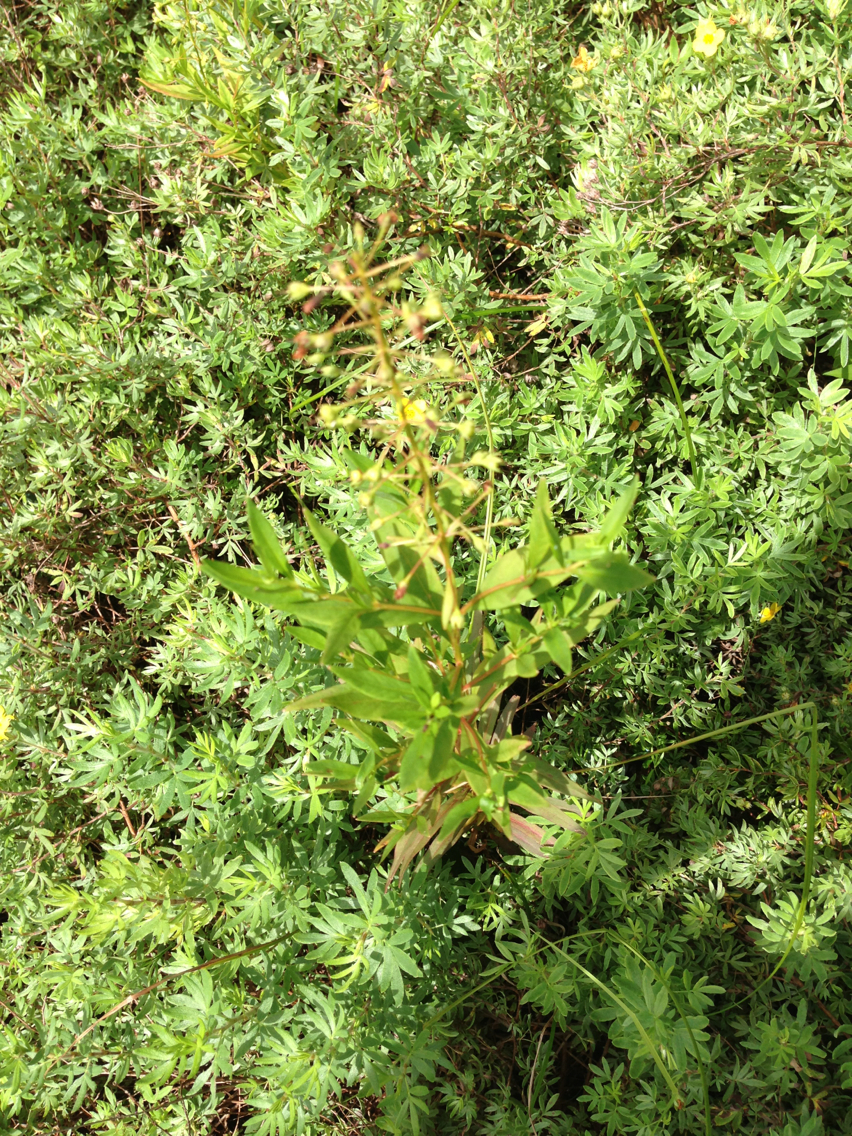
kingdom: Plantae
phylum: Tracheophyta
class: Magnoliopsida
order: Ericales
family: Primulaceae
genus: Lysimachia
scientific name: Lysimachia terrestris
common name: Lake loosestrife
